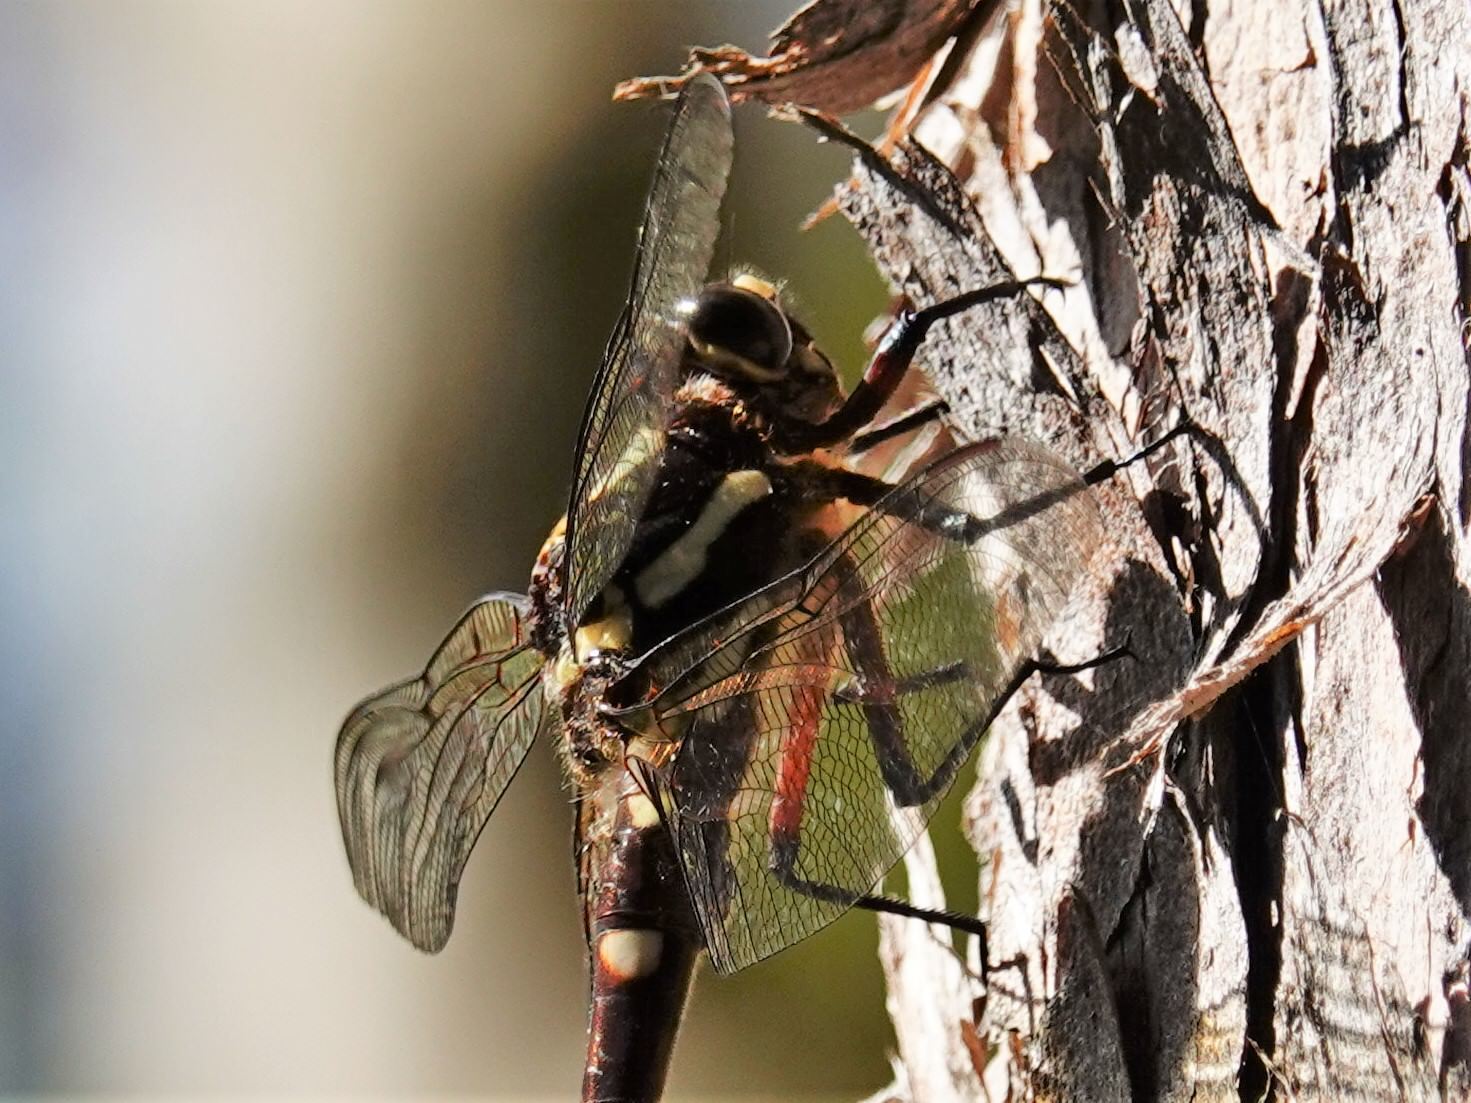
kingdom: Animalia
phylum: Arthropoda
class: Insecta
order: Odonata
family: Petaluridae
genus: Uropetala
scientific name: Uropetala carovei
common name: Bush giant dragonfly
